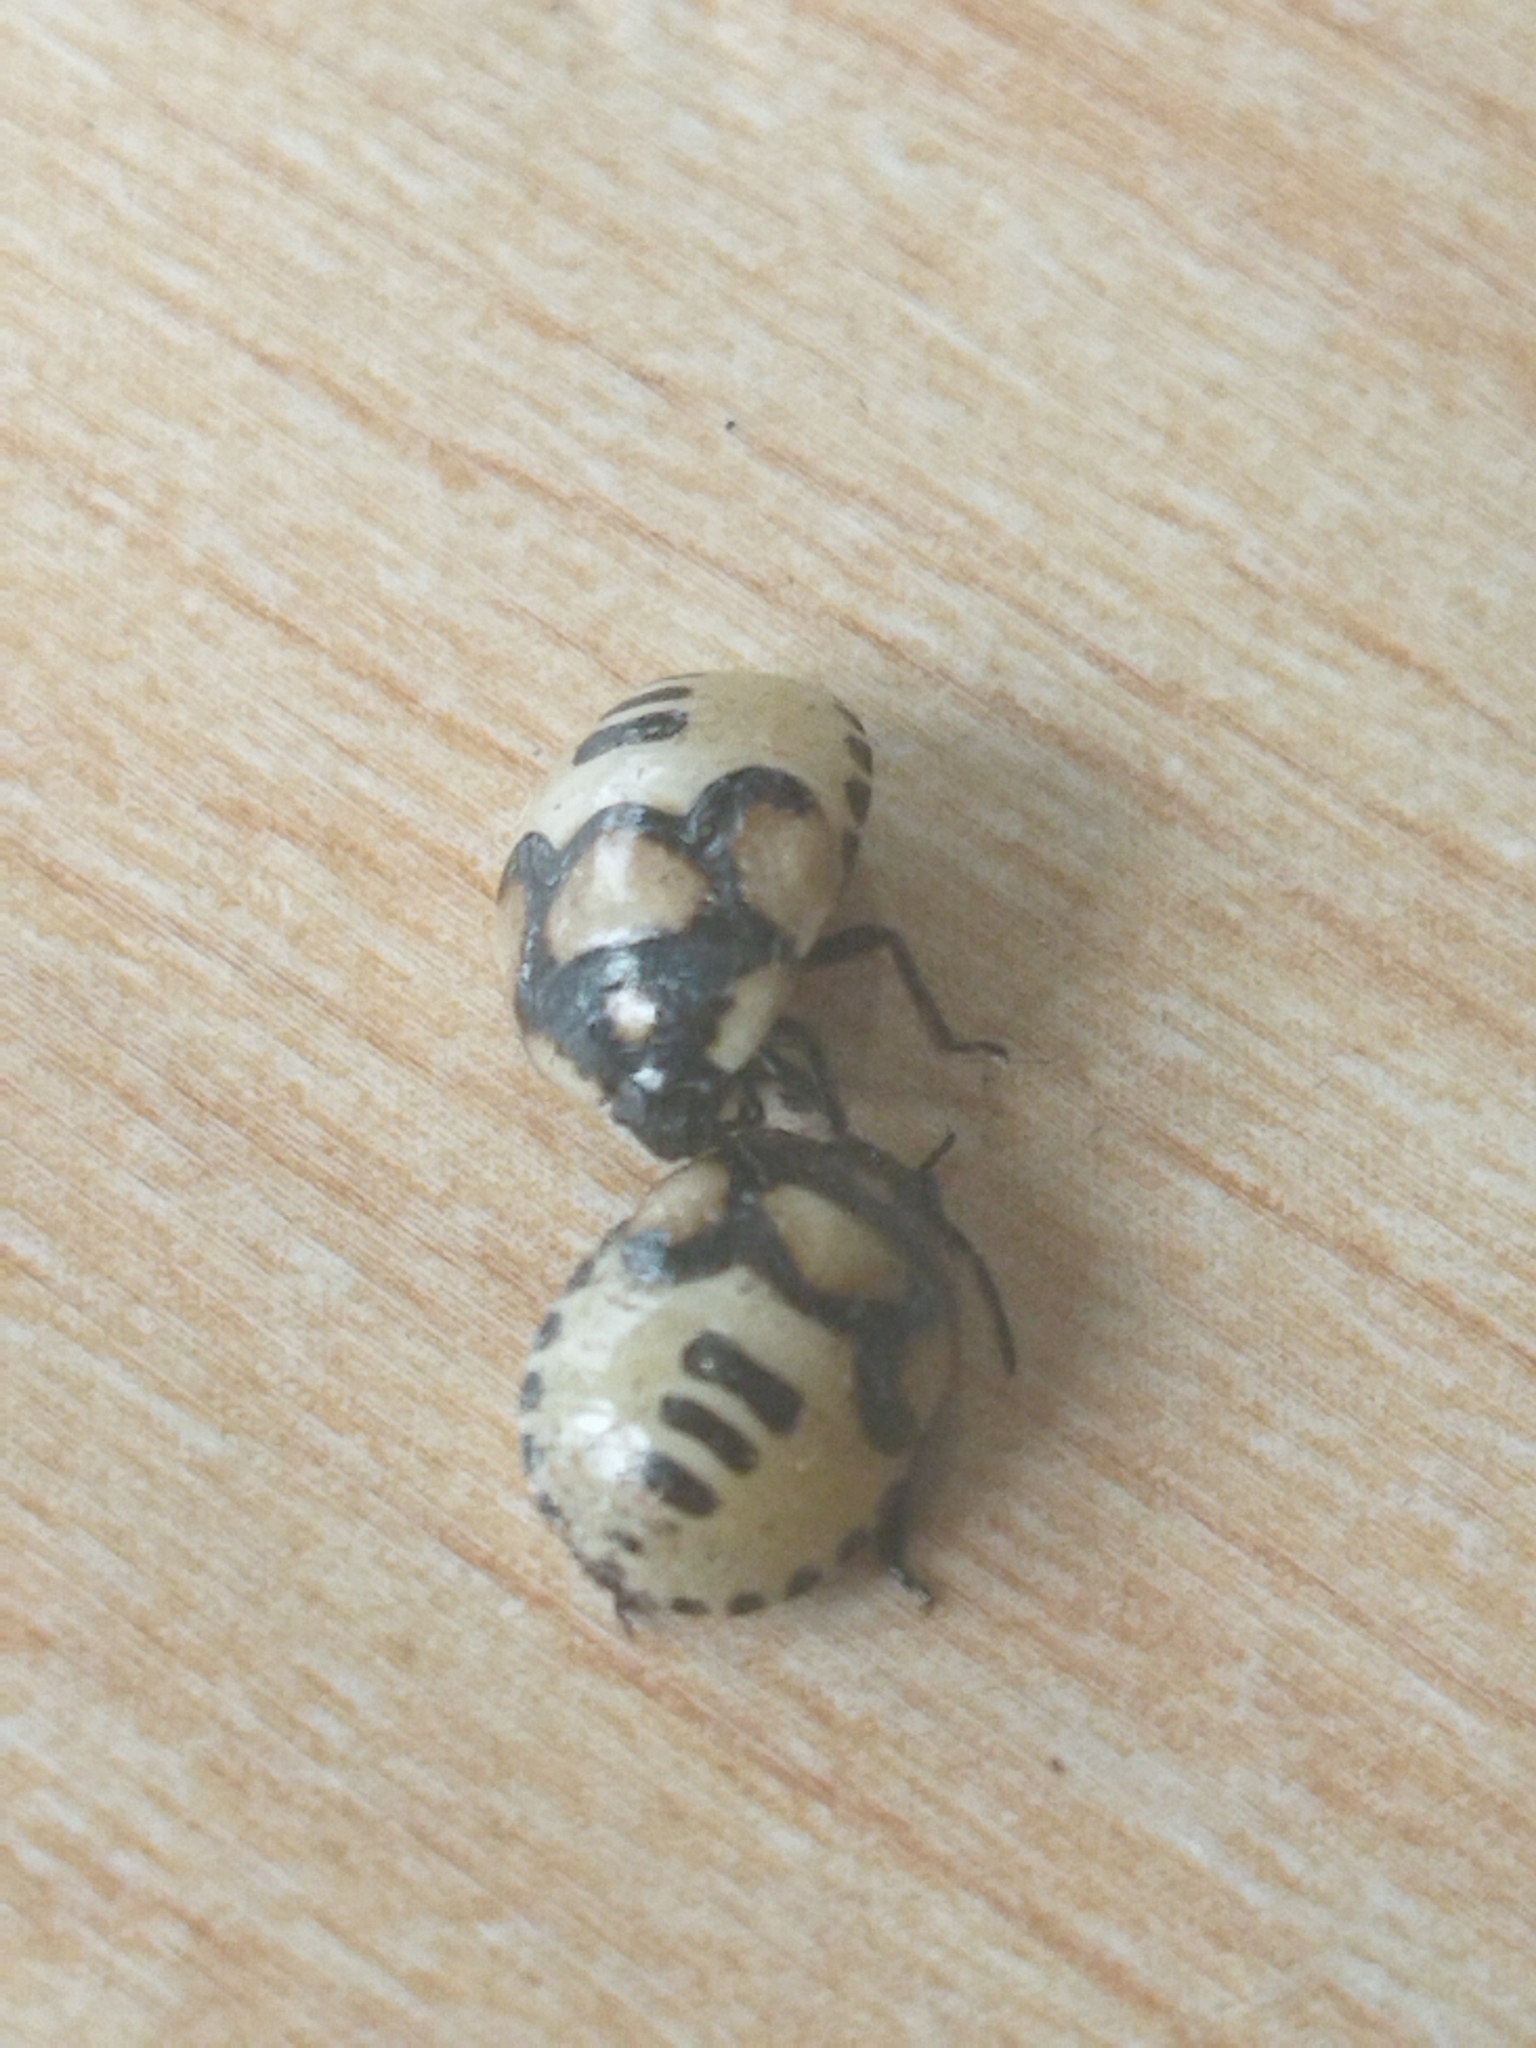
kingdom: Animalia
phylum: Arthropoda
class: Insecta
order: Hemiptera
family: Cydnidae
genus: Tritomegas
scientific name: Tritomegas bicolor
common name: Pied shieldbug
